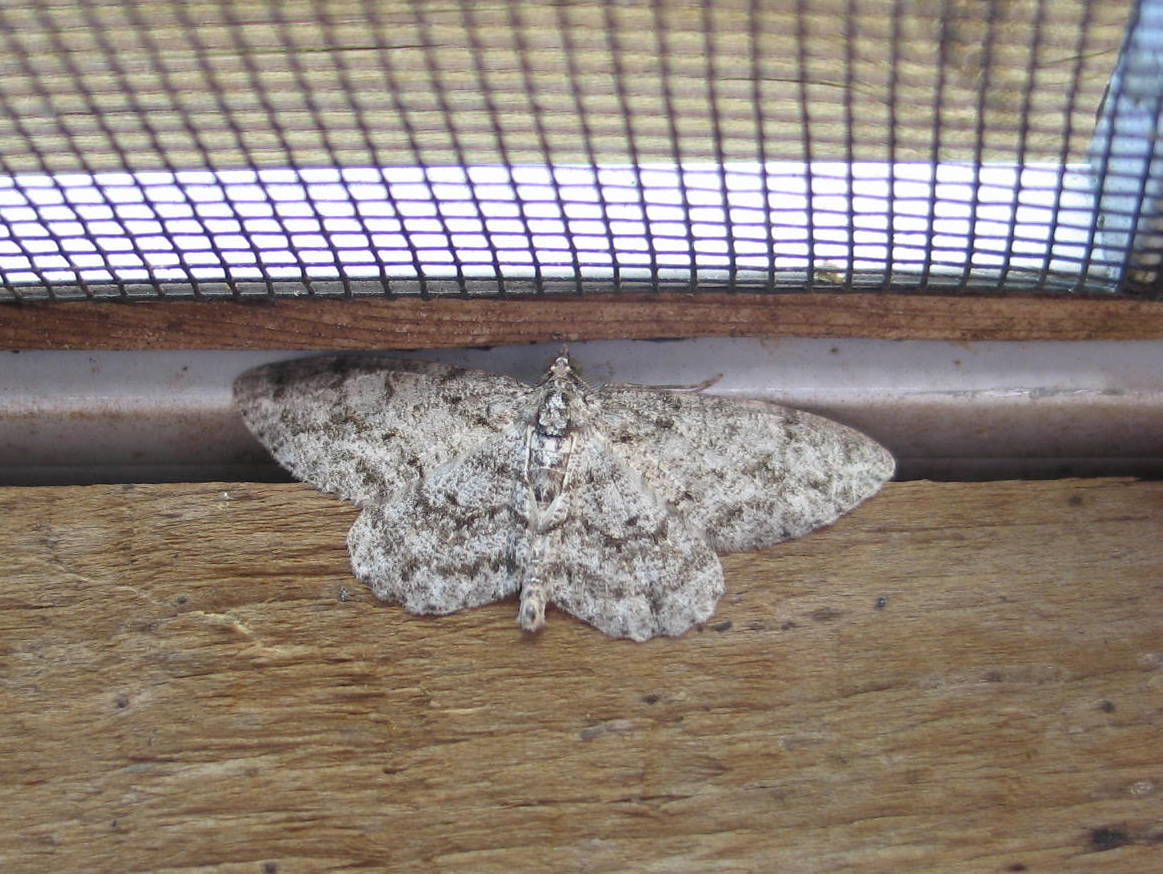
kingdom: Animalia
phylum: Arthropoda
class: Insecta
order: Lepidoptera
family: Geometridae
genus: Protoboarmia
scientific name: Protoboarmia porcelaria
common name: Porcelain gray
